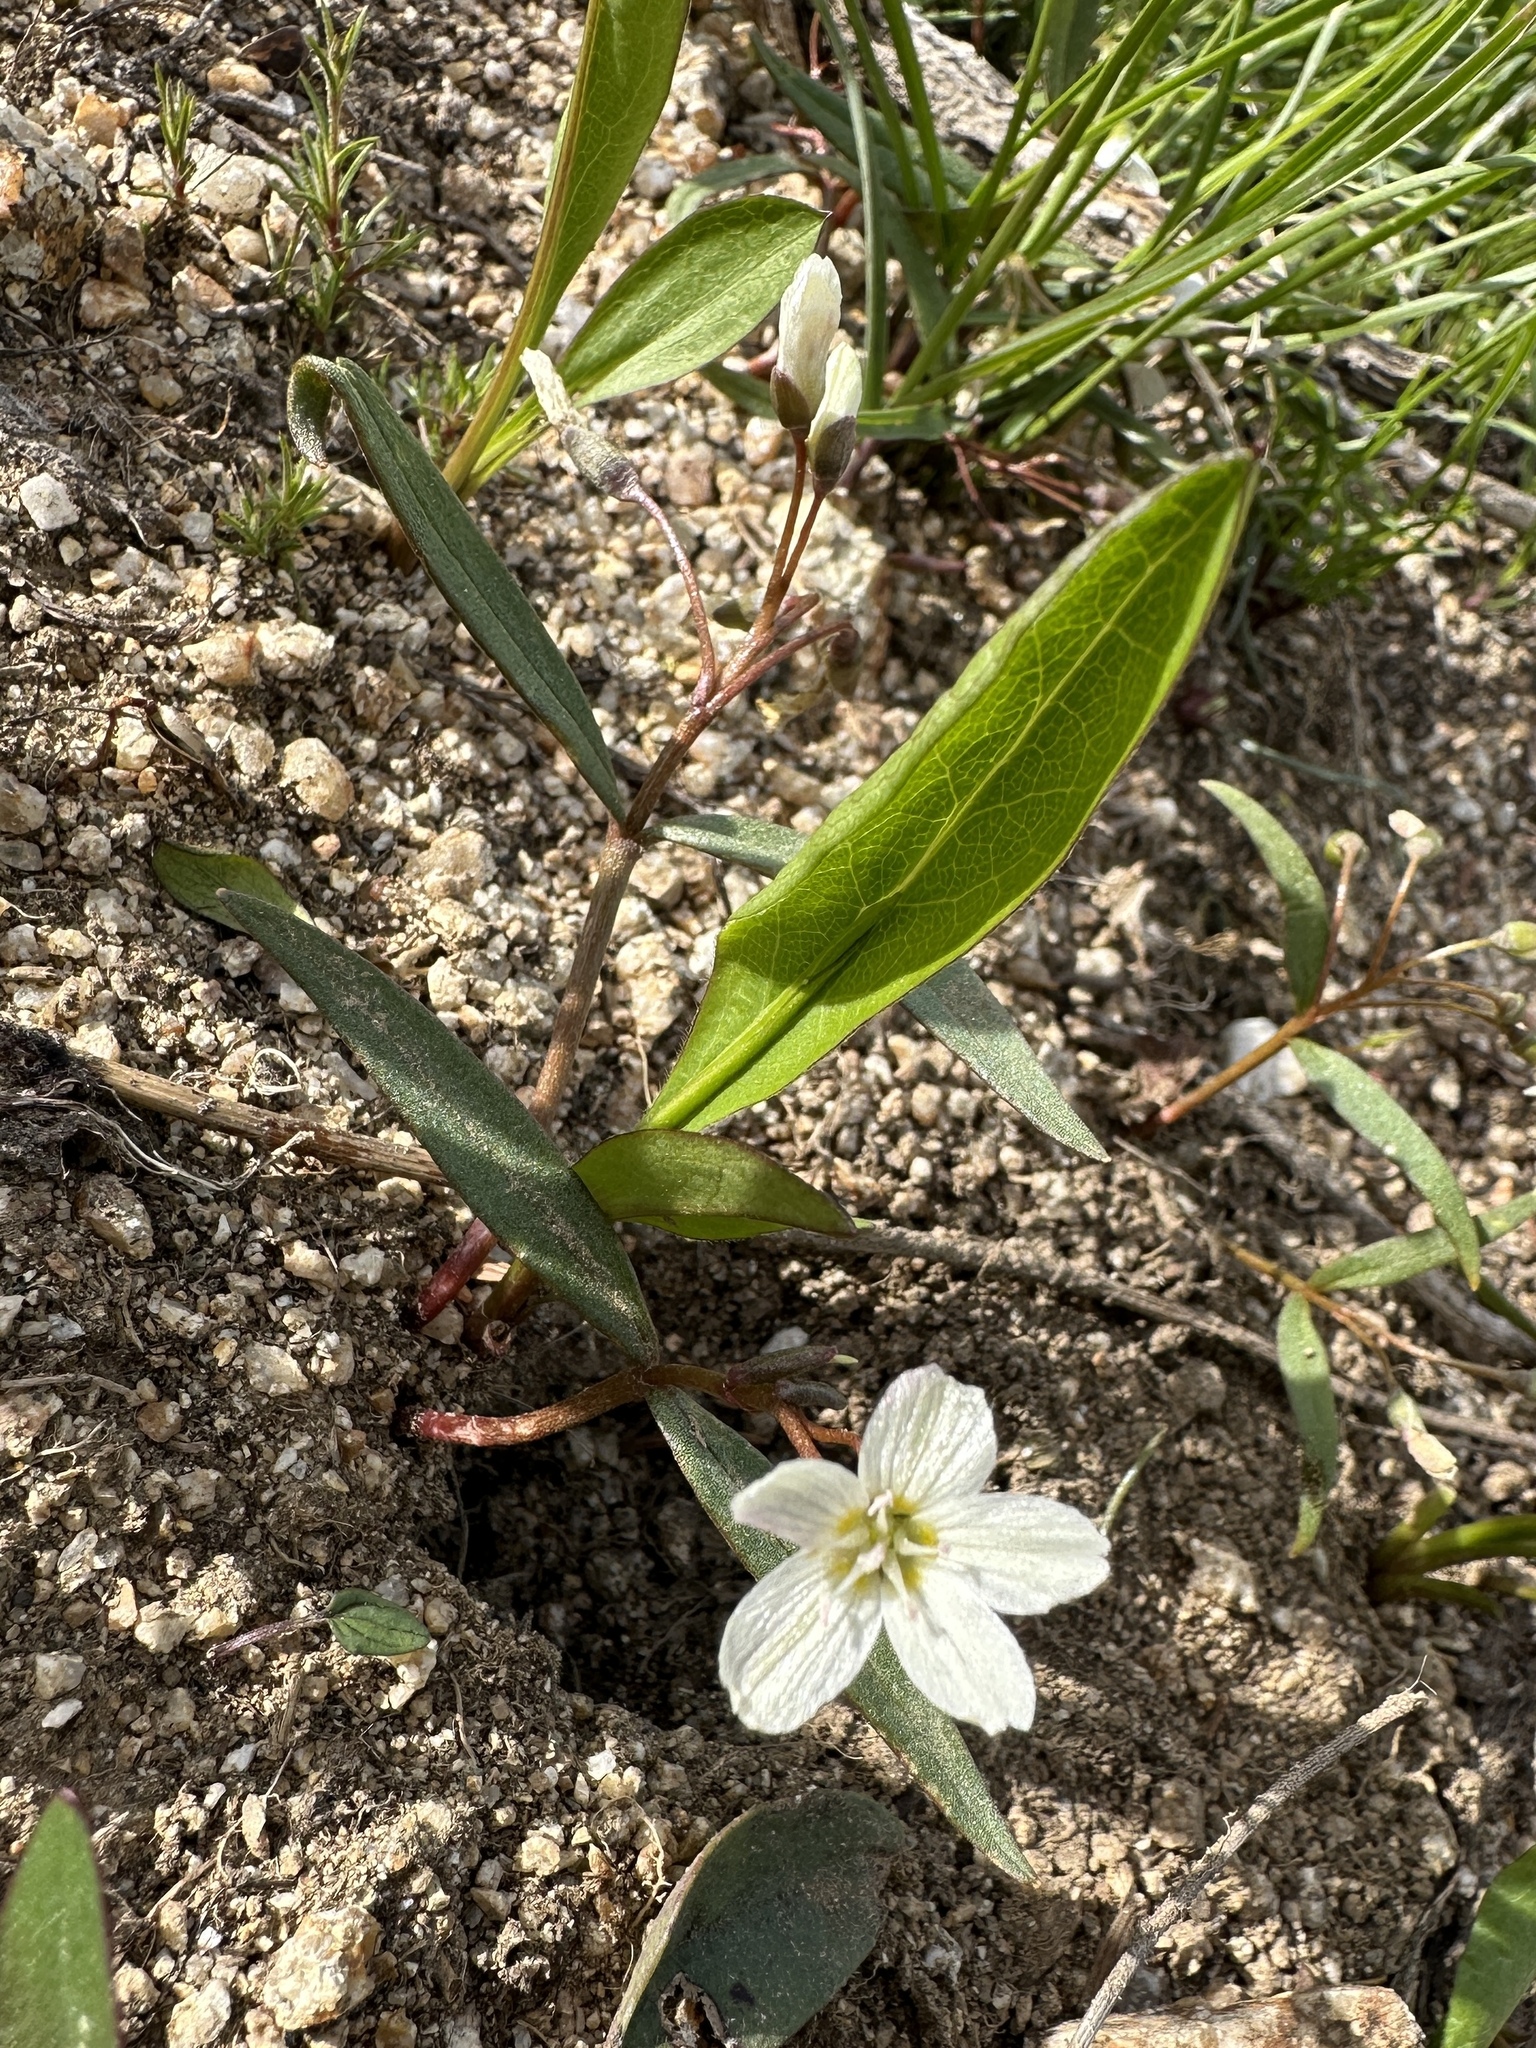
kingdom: Plantae
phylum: Tracheophyta
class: Magnoliopsida
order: Caryophyllales
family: Montiaceae
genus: Claytonia
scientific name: Claytonia lanceolata
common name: Western spring-beauty
